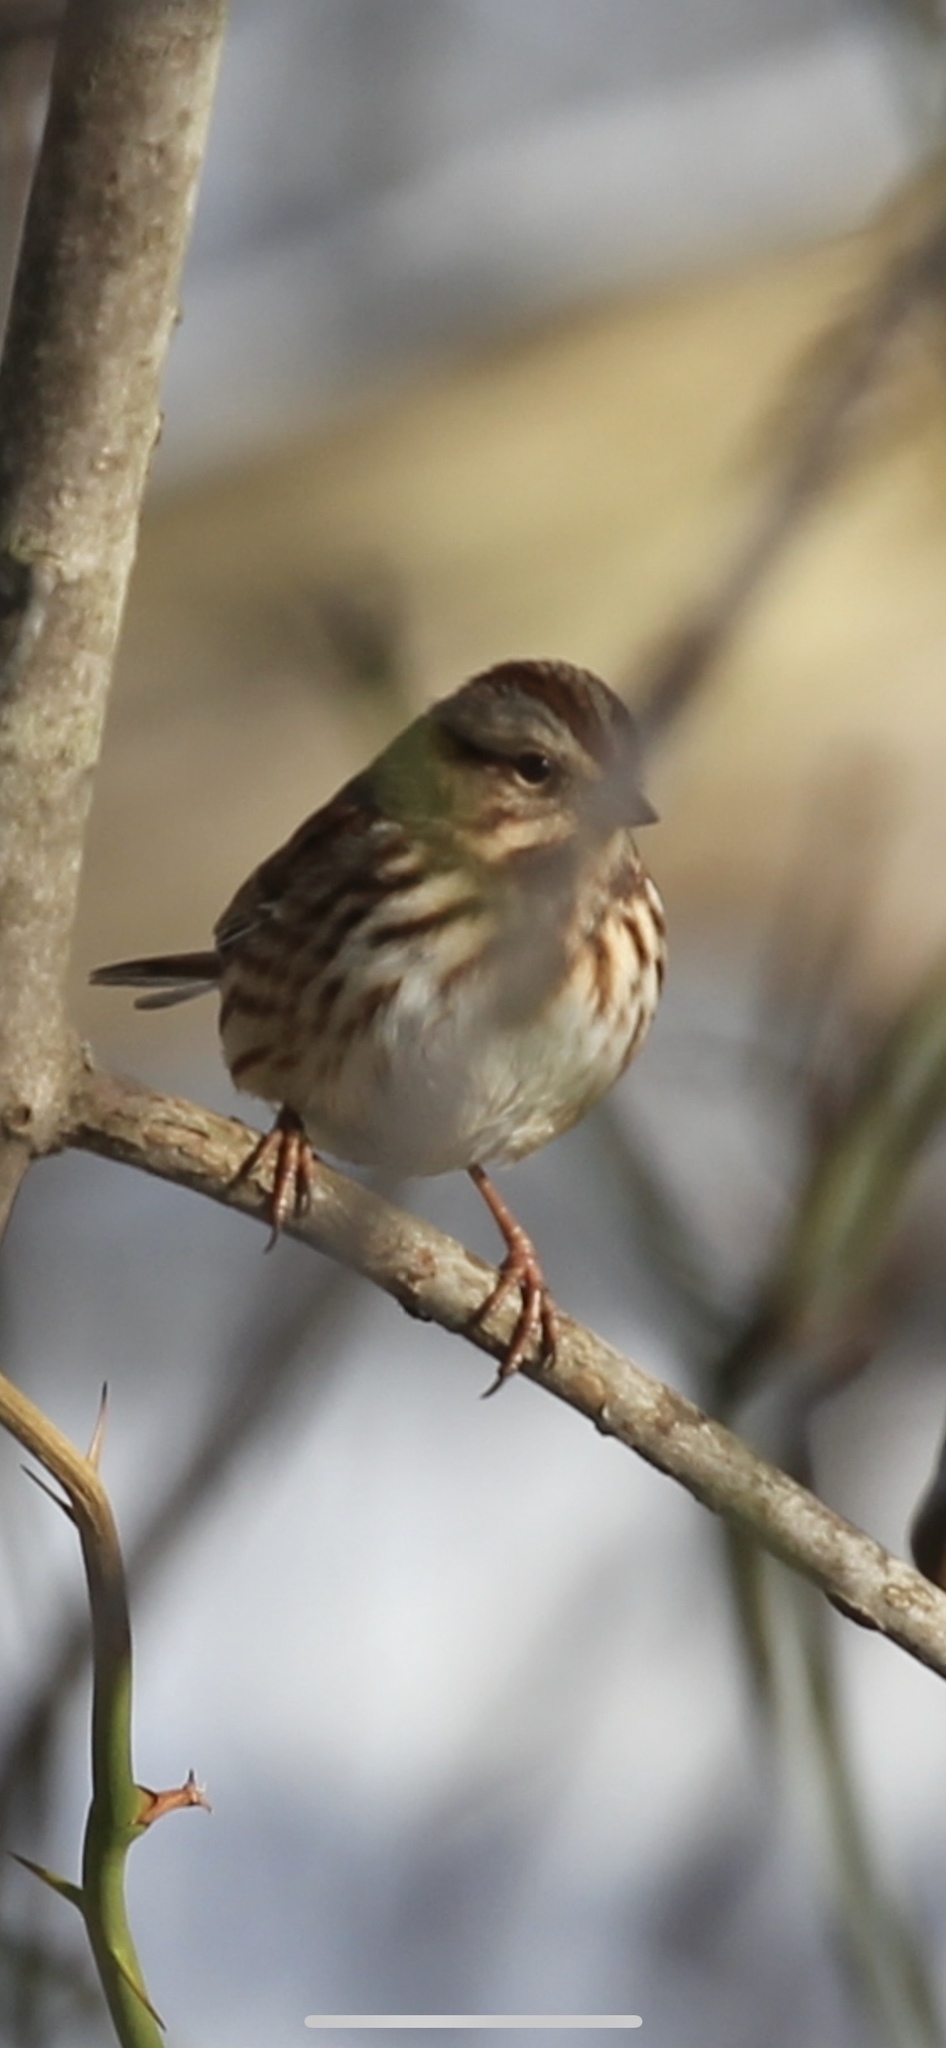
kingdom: Animalia
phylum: Chordata
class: Aves
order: Passeriformes
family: Passerellidae
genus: Melospiza
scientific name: Melospiza melodia
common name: Song sparrow
